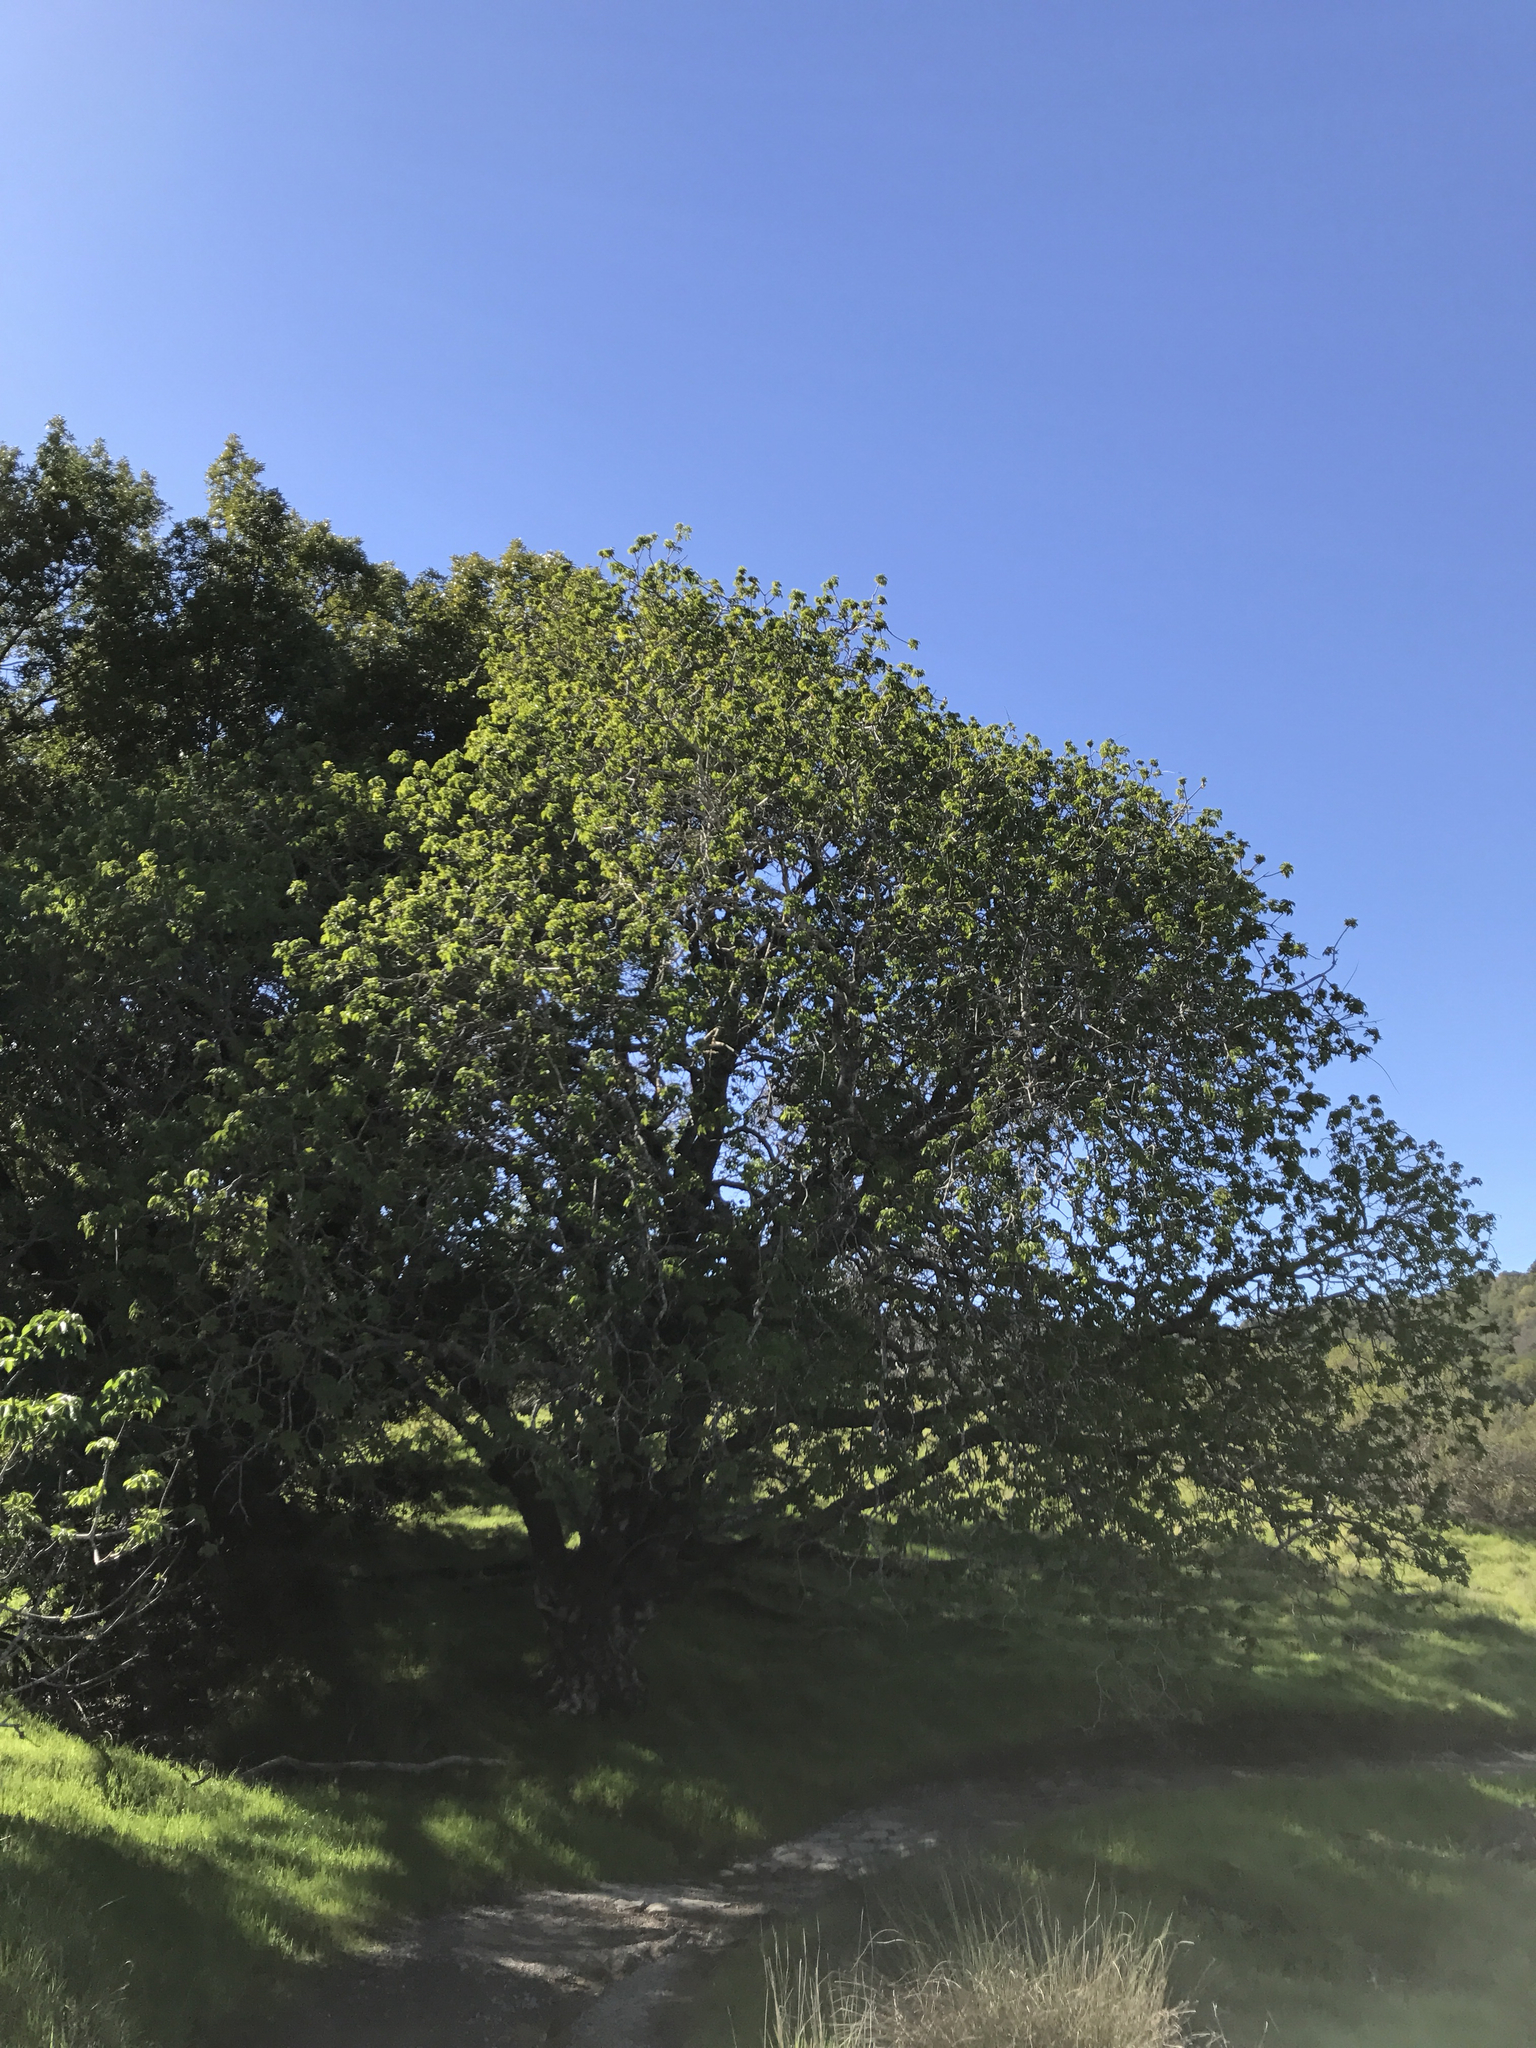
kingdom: Plantae
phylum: Tracheophyta
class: Magnoliopsida
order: Sapindales
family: Sapindaceae
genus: Aesculus
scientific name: Aesculus californica
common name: California buckeye
